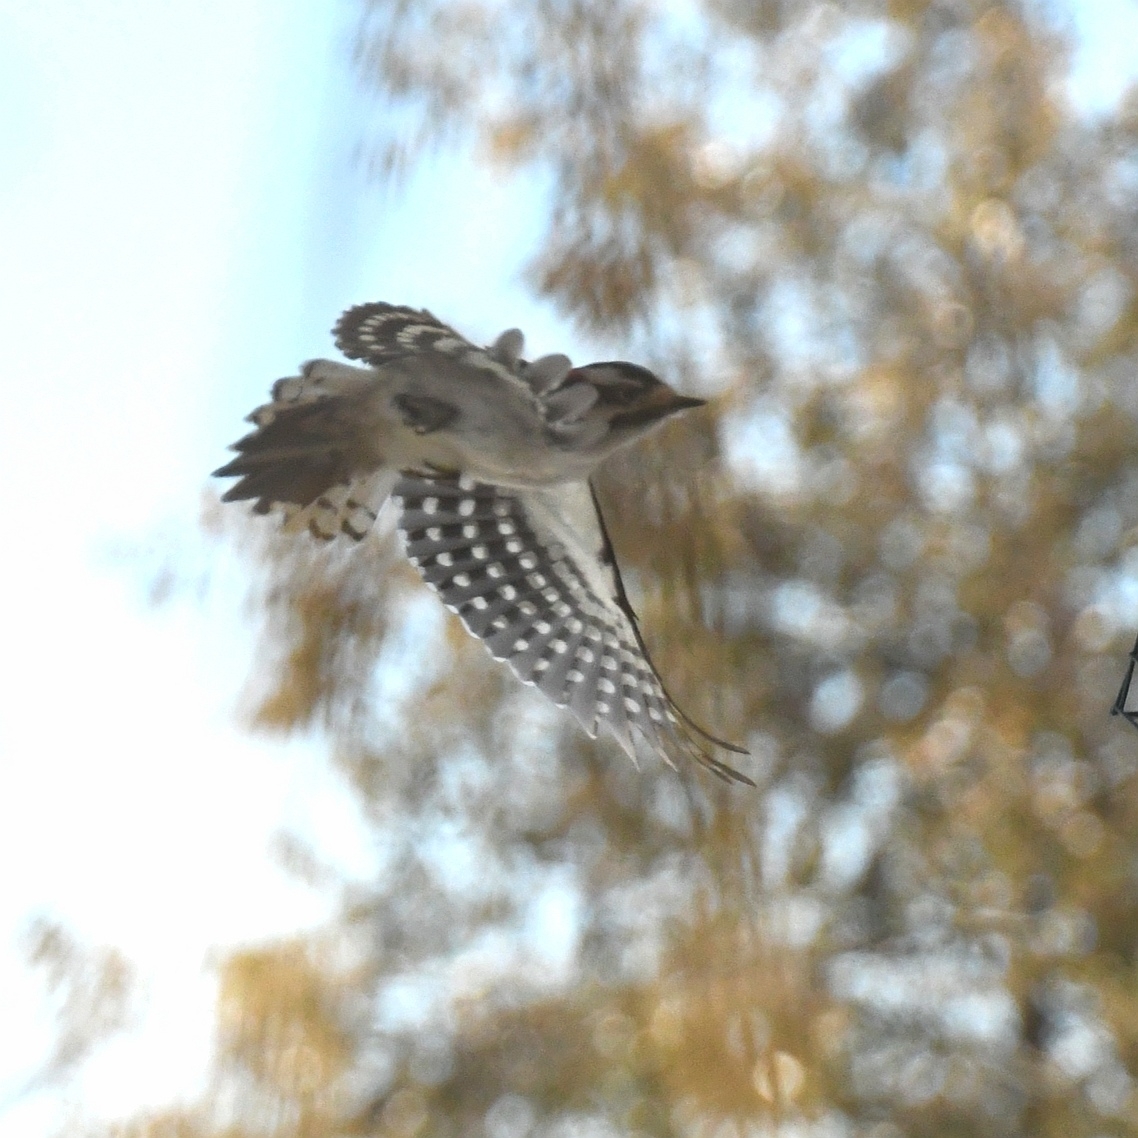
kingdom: Animalia
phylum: Chordata
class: Aves
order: Piciformes
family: Picidae
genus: Dryobates
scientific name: Dryobates pubescens
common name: Downy woodpecker
